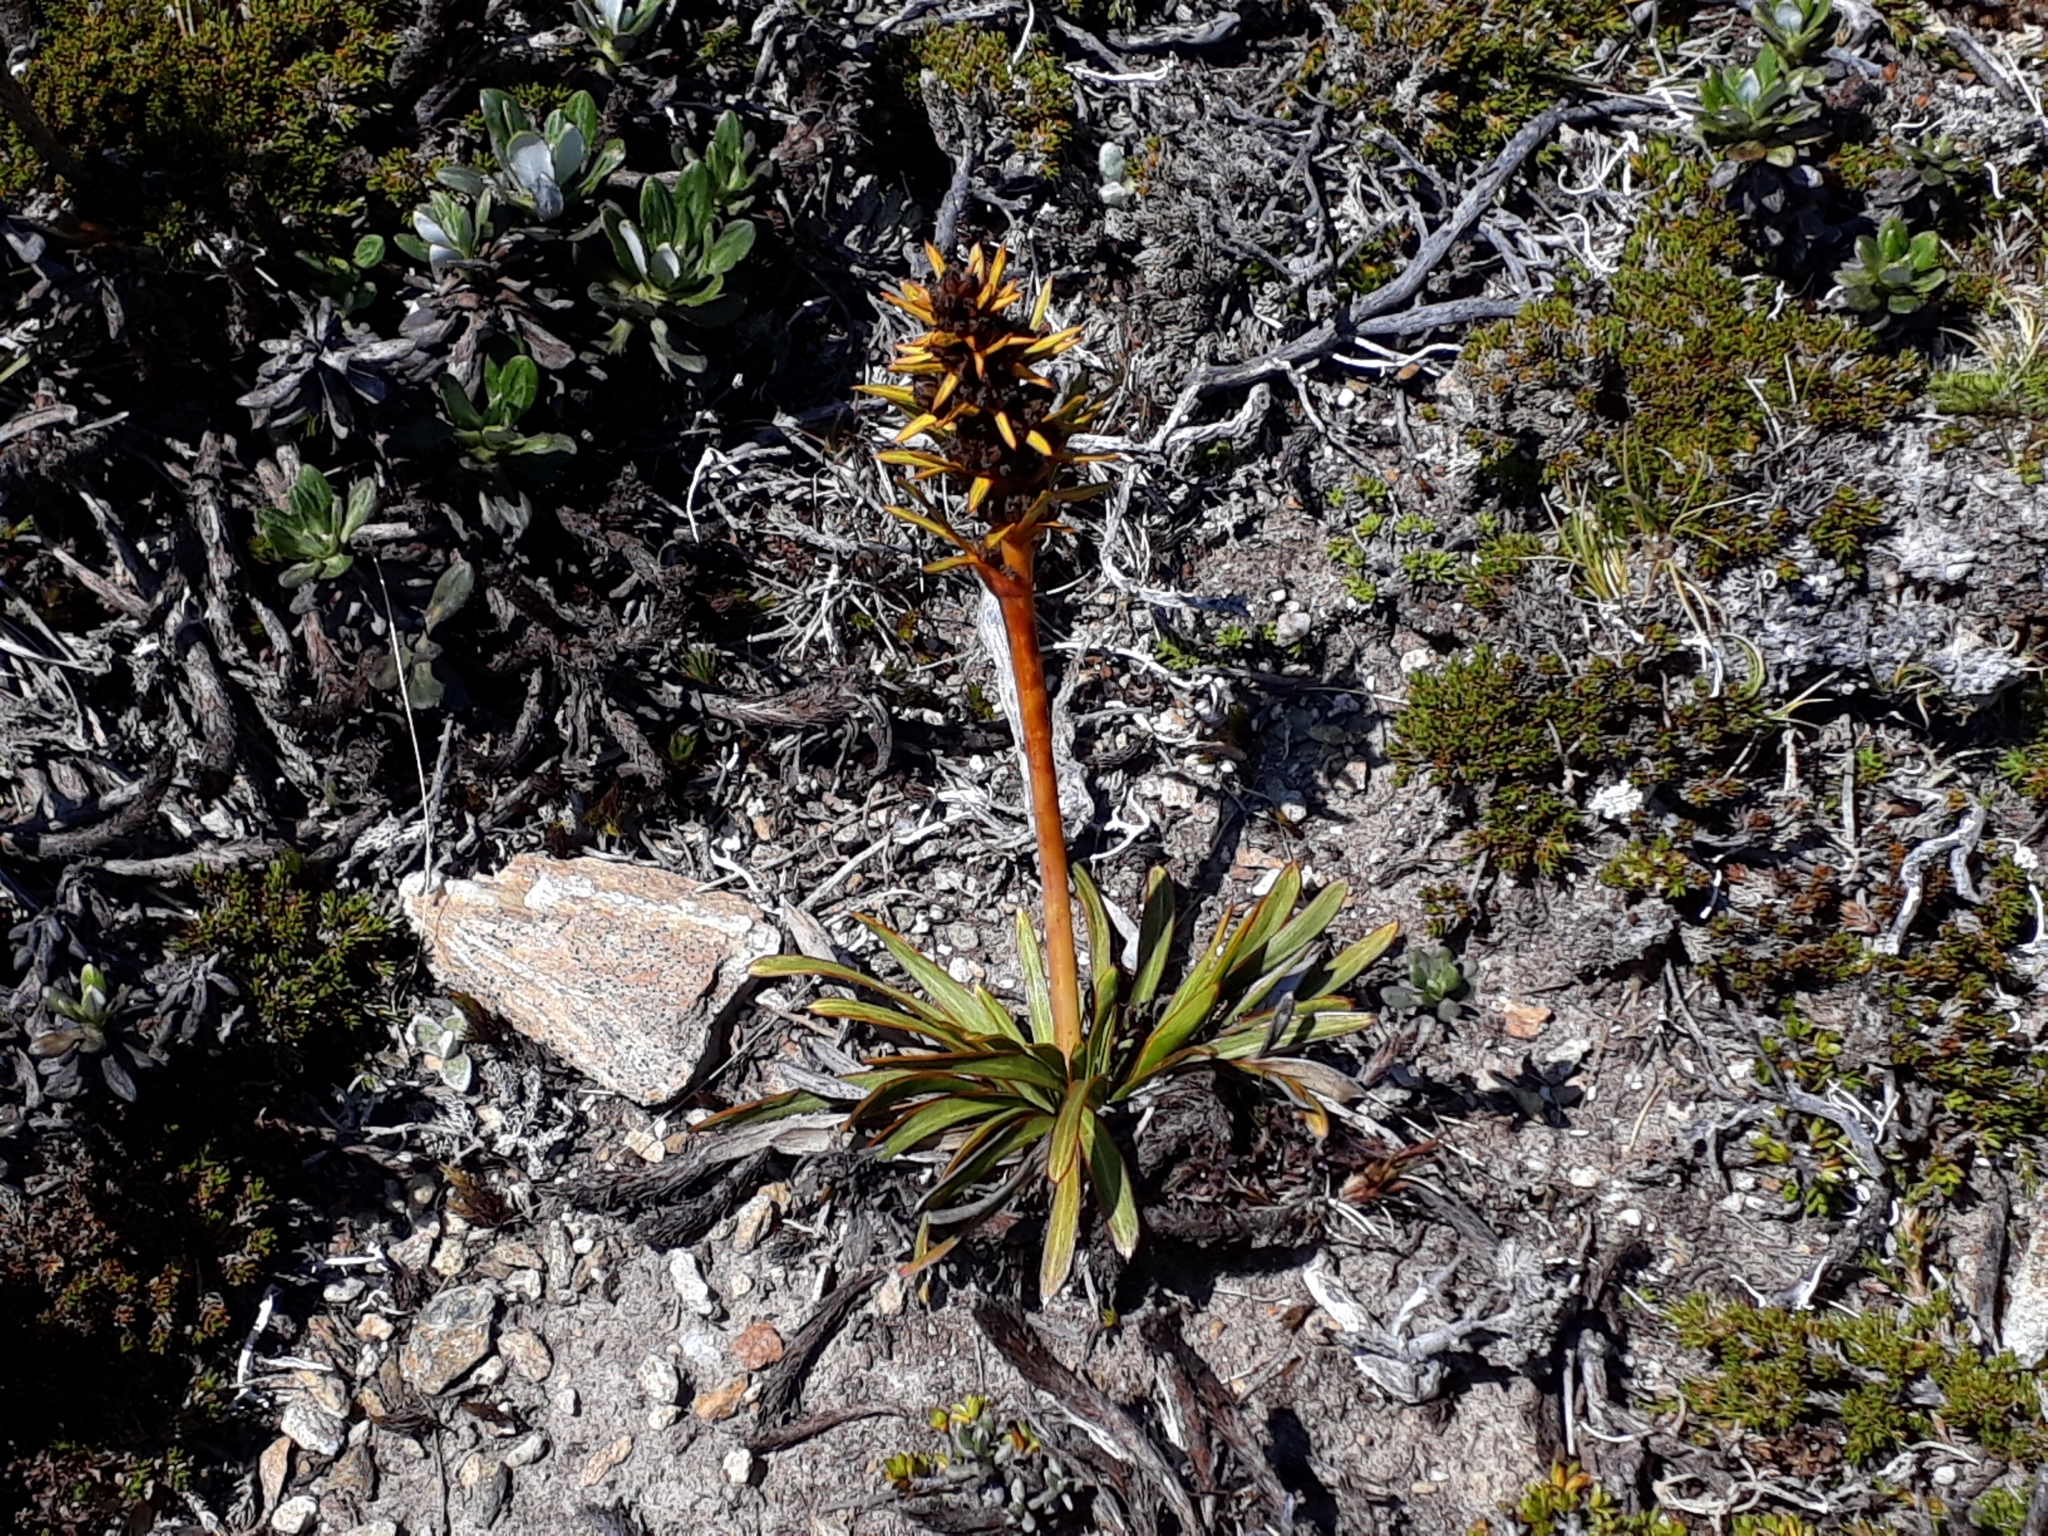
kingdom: Plantae
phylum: Tracheophyta
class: Magnoliopsida
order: Apiales
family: Apiaceae
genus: Aciphylla
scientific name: Aciphylla verticillata
